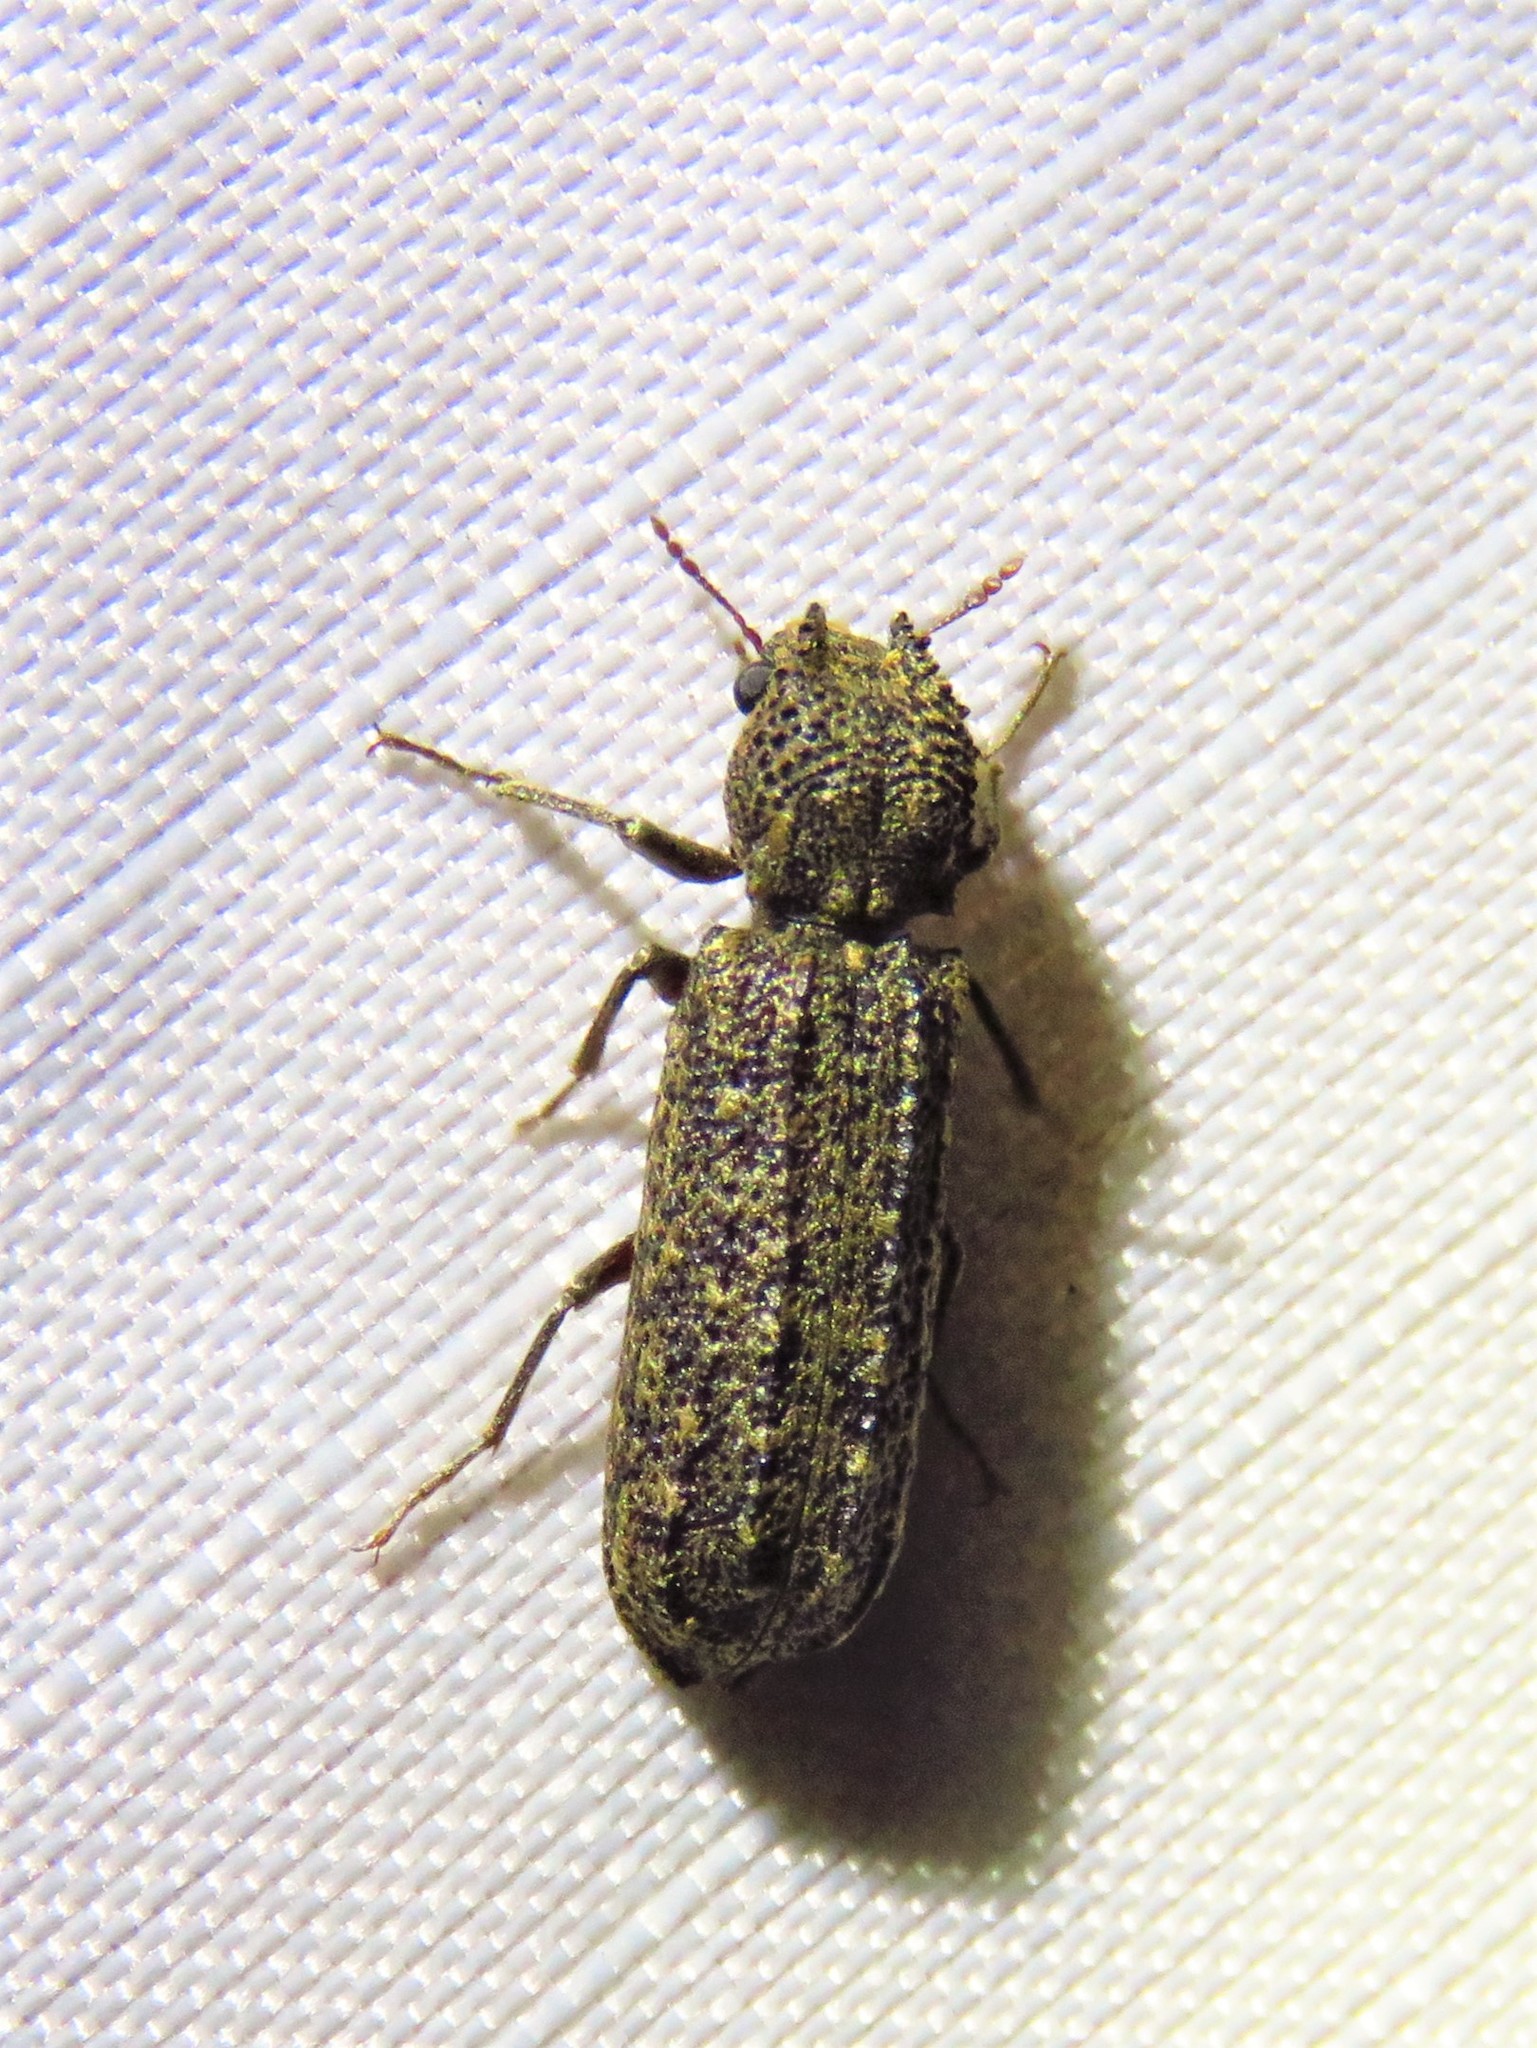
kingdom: Animalia
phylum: Arthropoda
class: Insecta
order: Coleoptera
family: Bostrichidae
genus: Lichenophanes
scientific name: Lichenophanes bicornis
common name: Two-horned powder-post beetle
